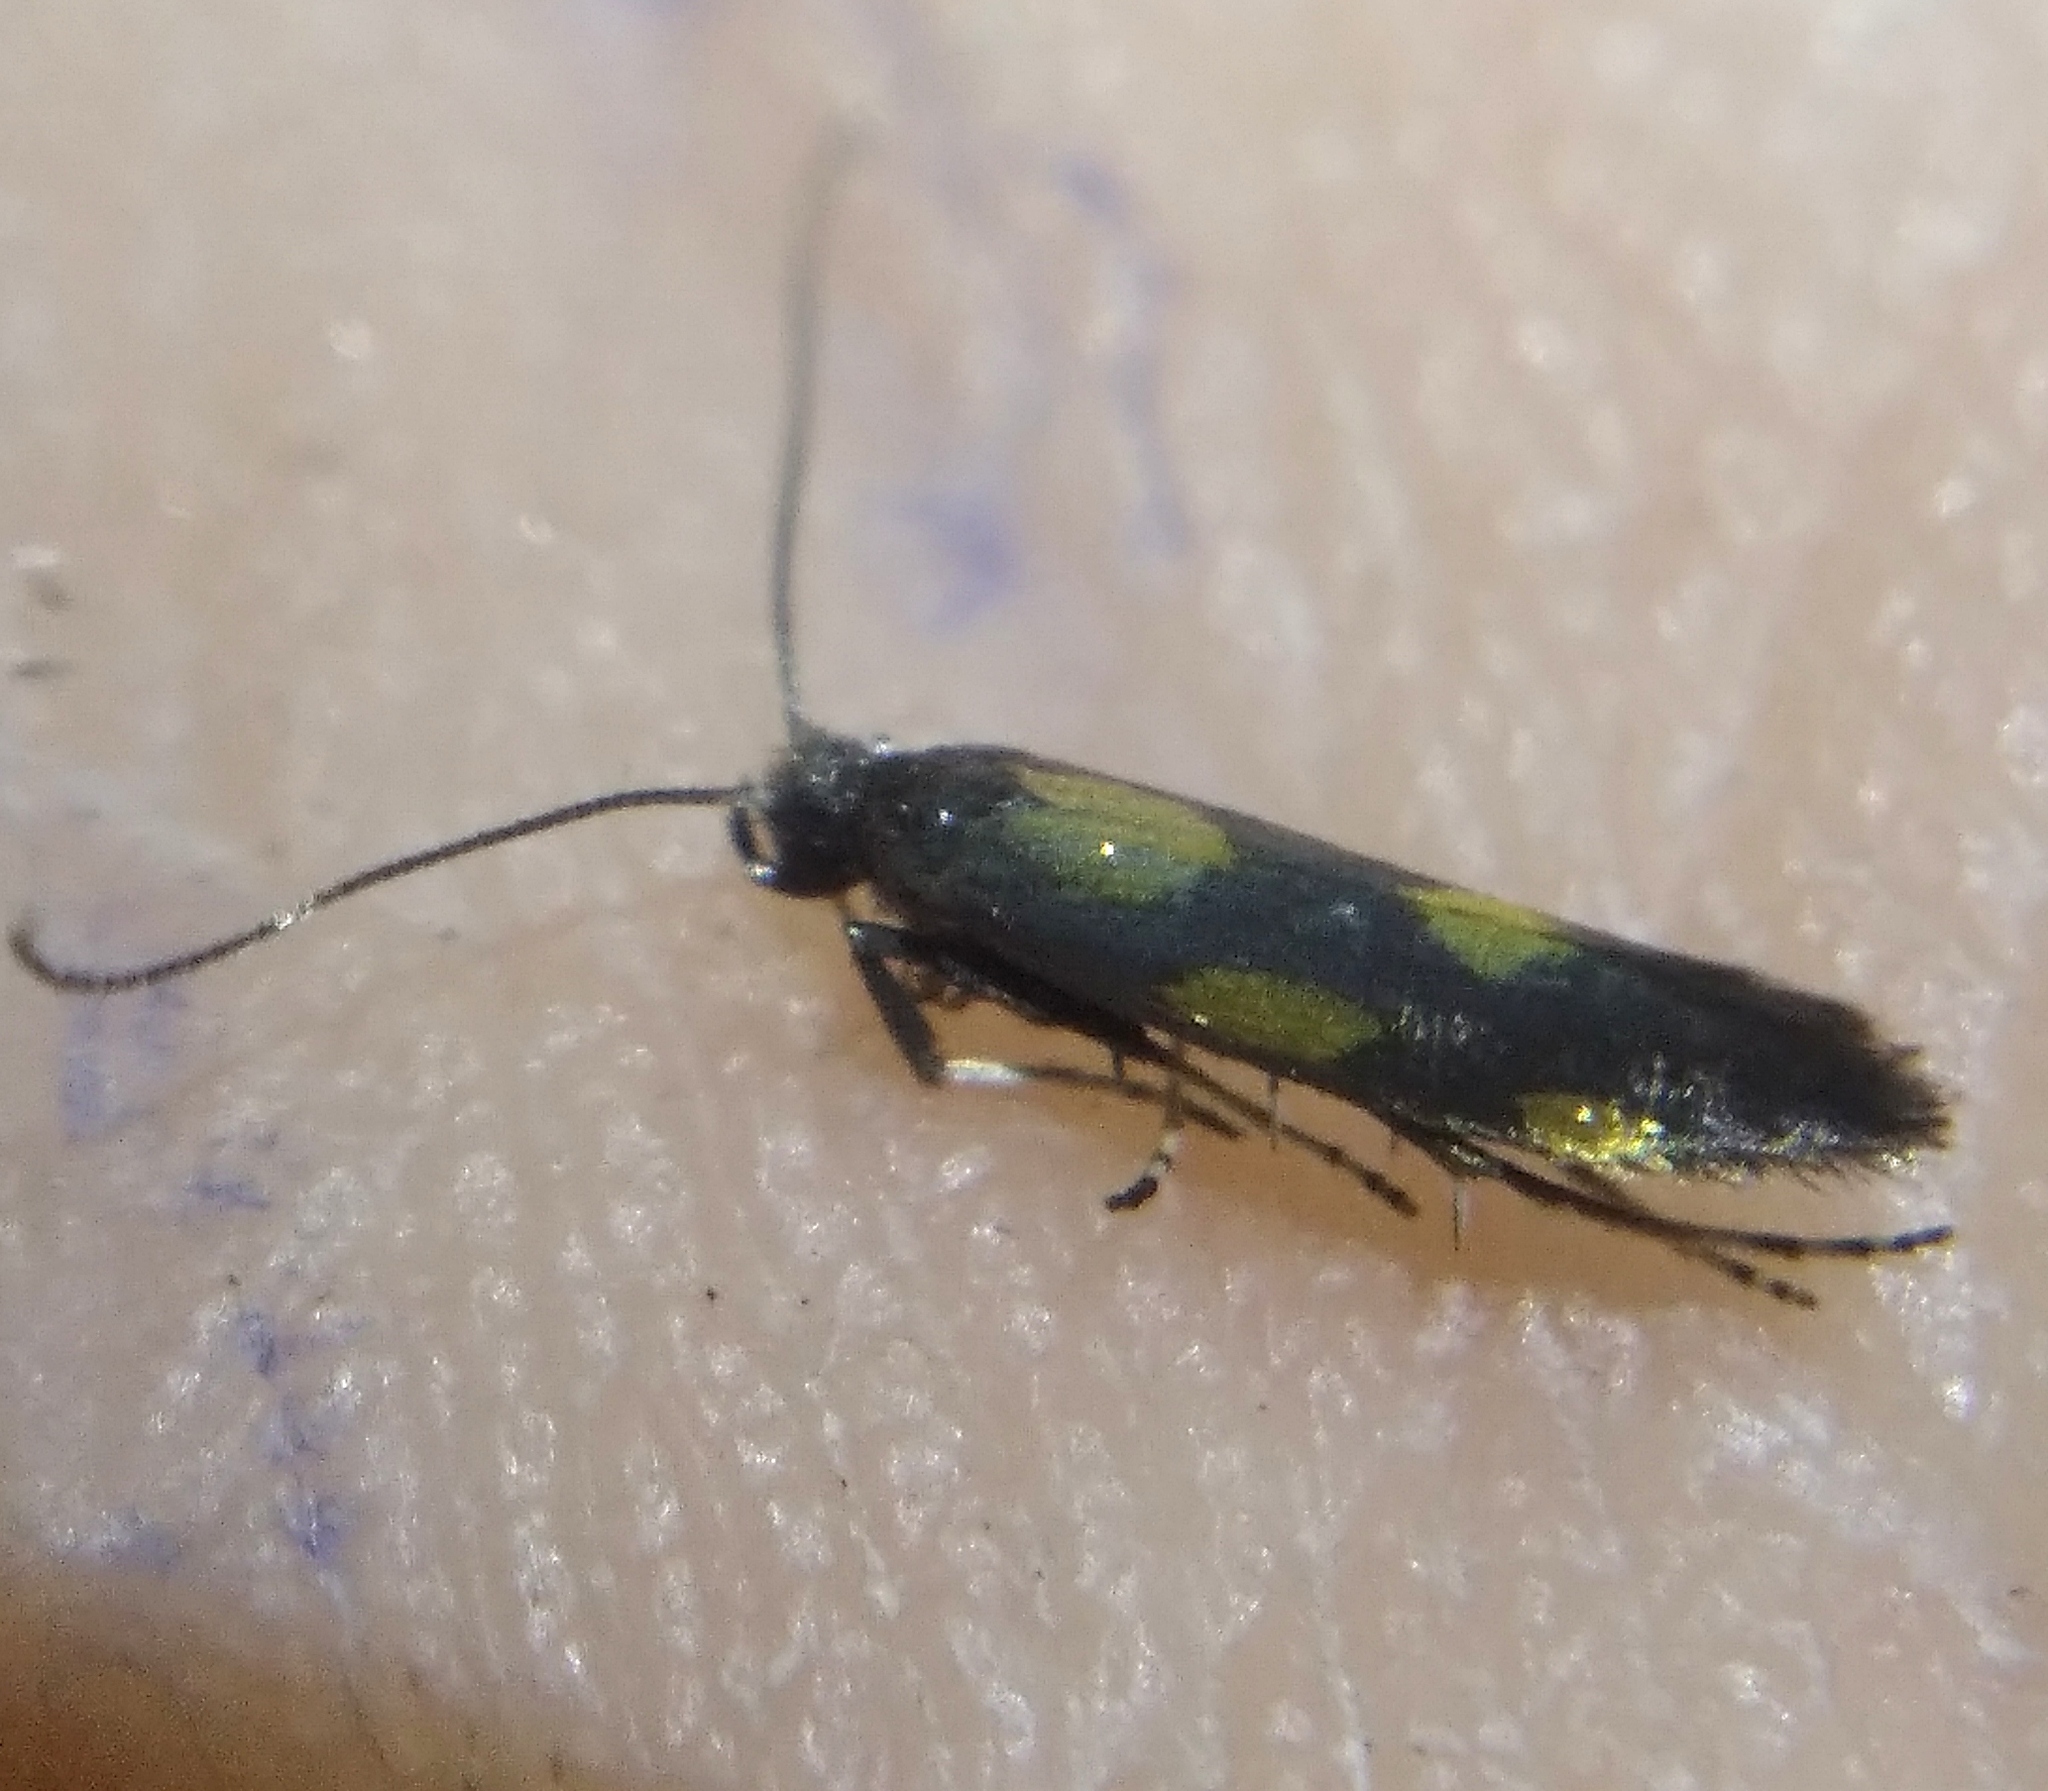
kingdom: Animalia
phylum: Arthropoda
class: Insecta
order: Lepidoptera
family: Gracillariidae
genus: Euspilapteryx
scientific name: Euspilapteryx auroguttella
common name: Gold-dot slender
